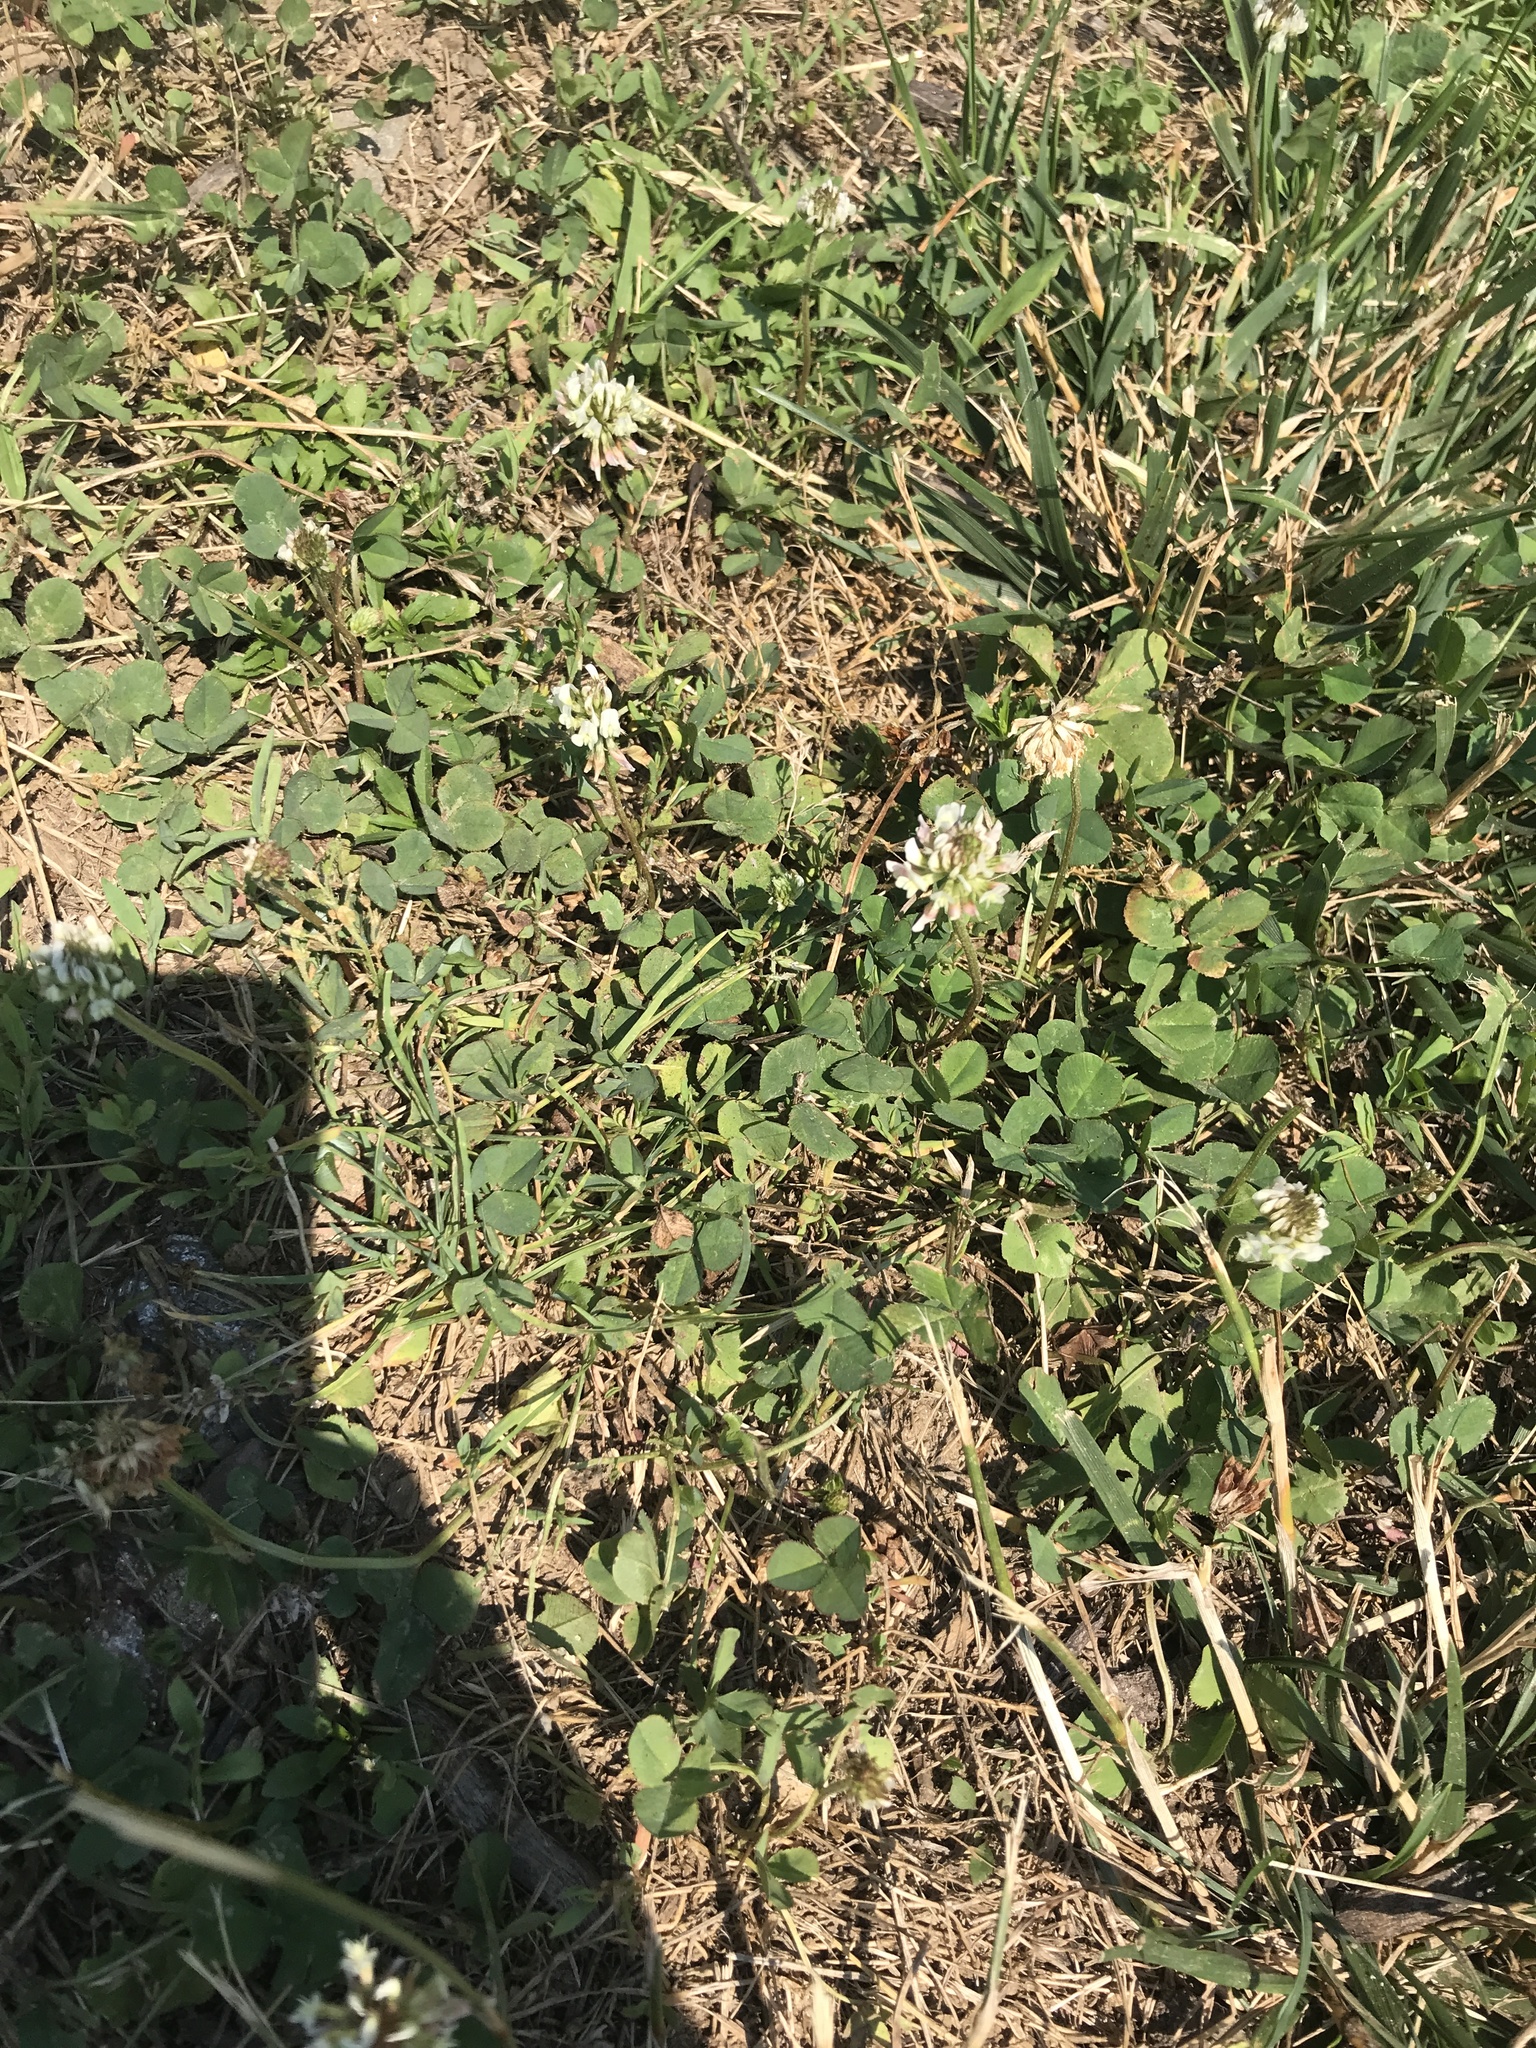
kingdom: Plantae
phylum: Tracheophyta
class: Magnoliopsida
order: Fabales
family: Fabaceae
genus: Trifolium
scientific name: Trifolium repens
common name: White clover
